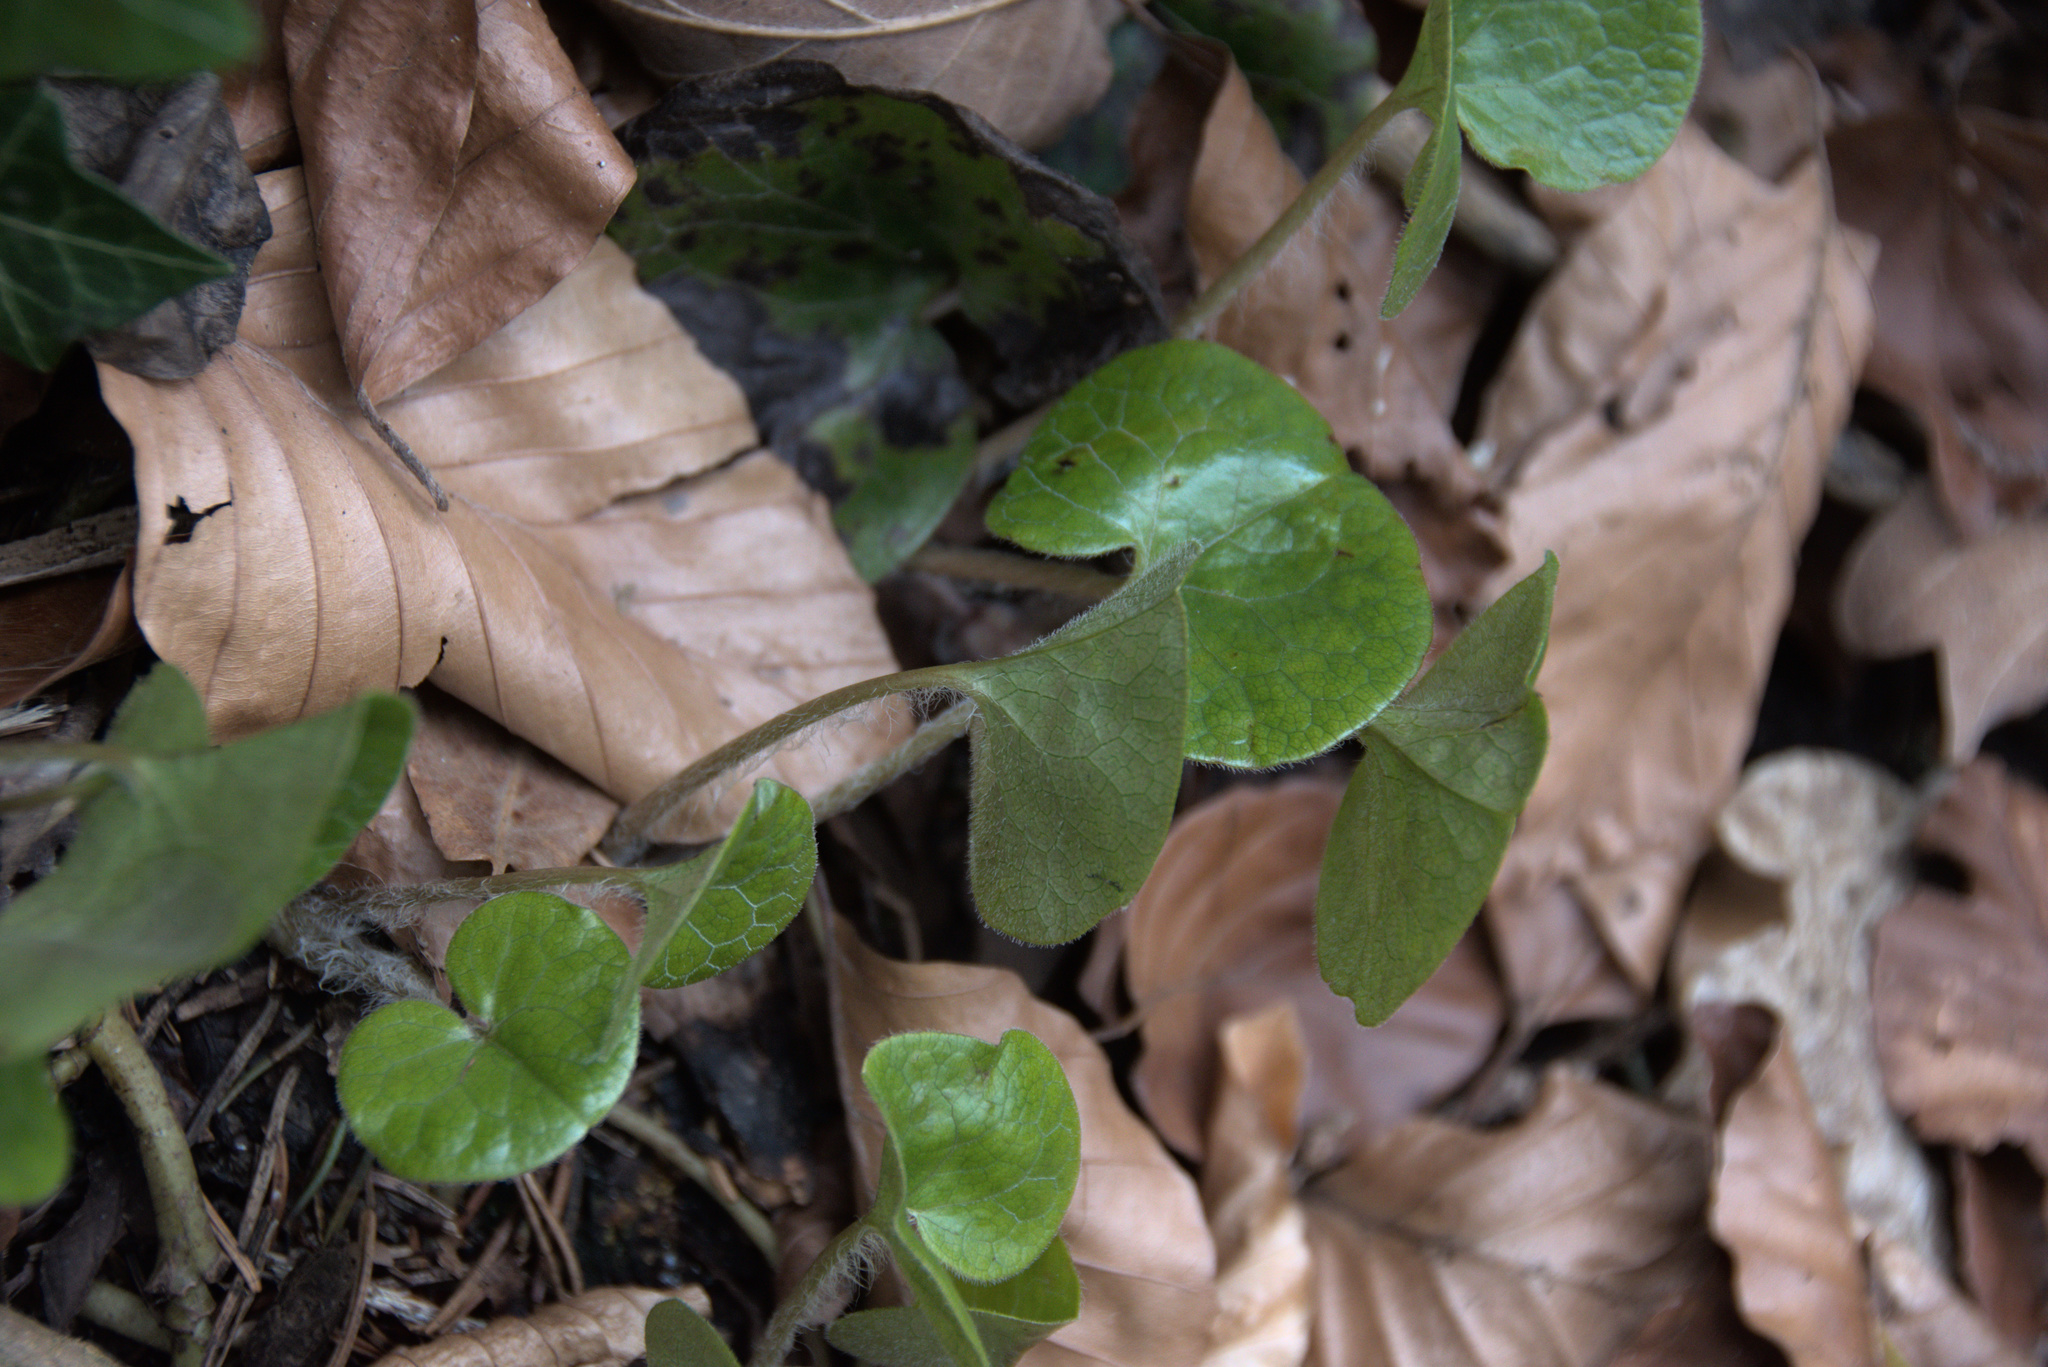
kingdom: Plantae
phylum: Tracheophyta
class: Magnoliopsida
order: Piperales
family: Aristolochiaceae
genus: Asarum
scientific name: Asarum europaeum
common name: Asarabacca
